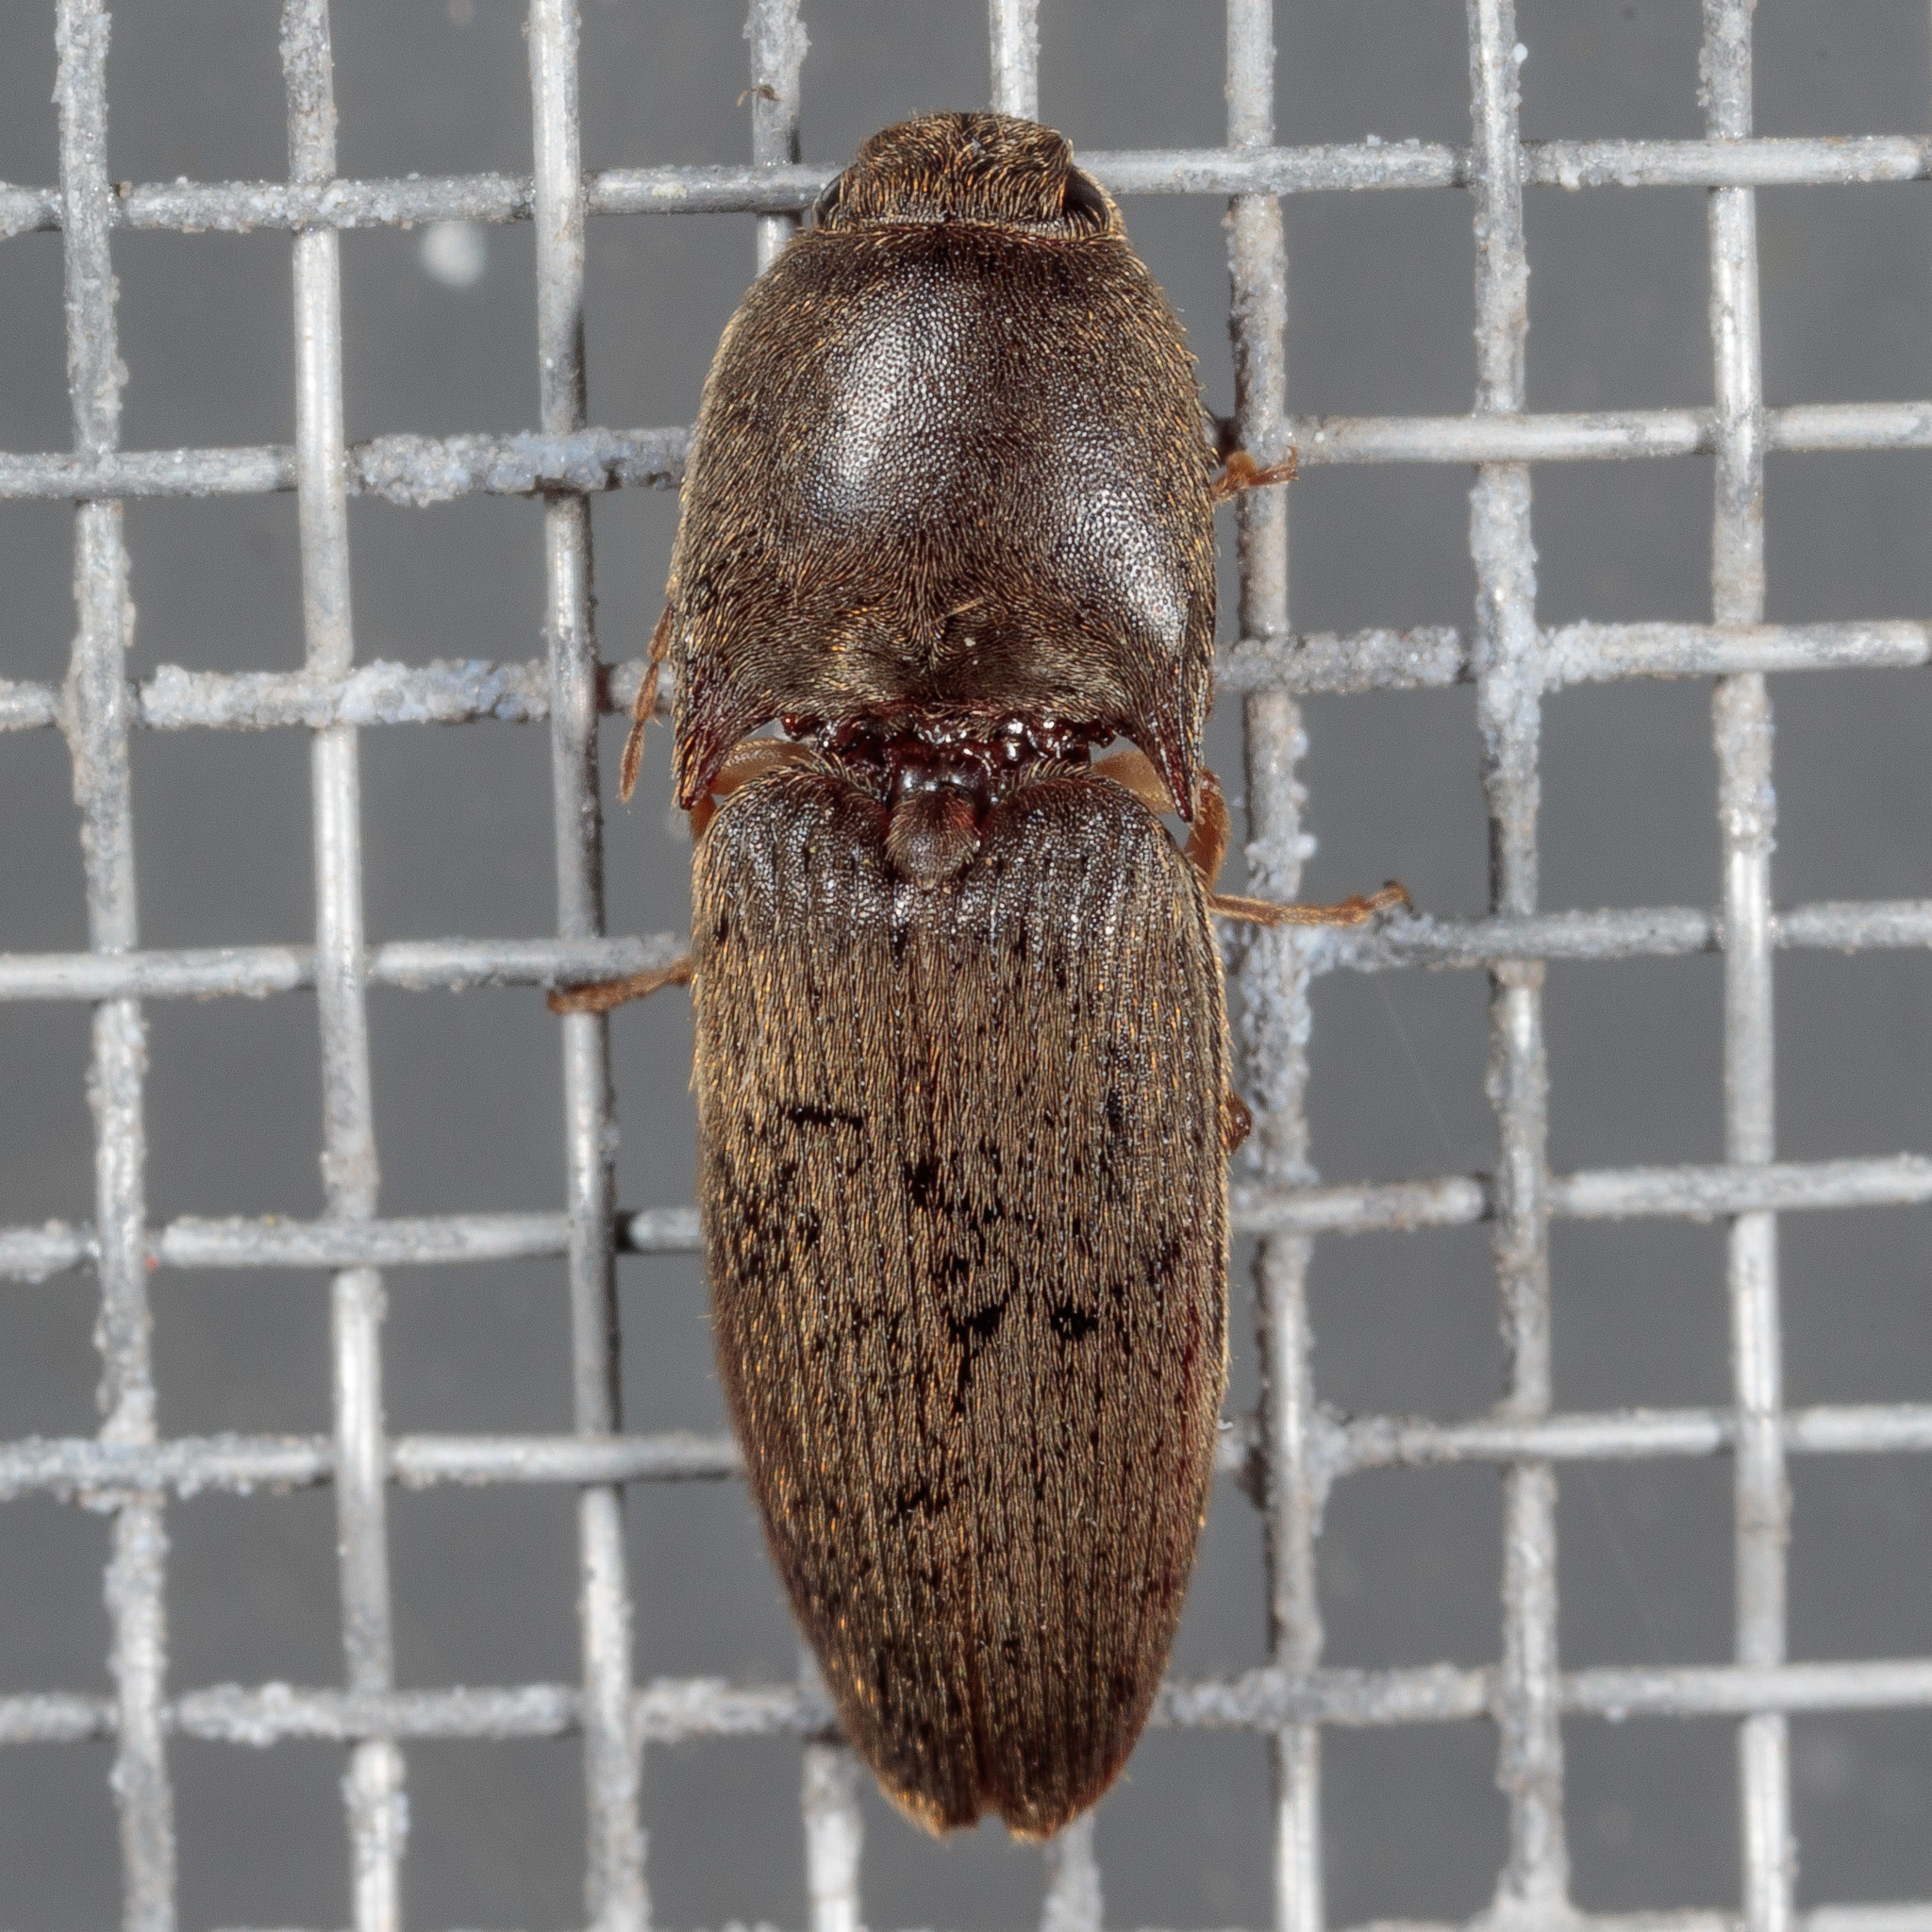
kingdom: Animalia
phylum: Arthropoda
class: Insecta
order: Coleoptera
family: Elateridae
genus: Conoderus
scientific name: Conoderus exsul
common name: Click beetle
